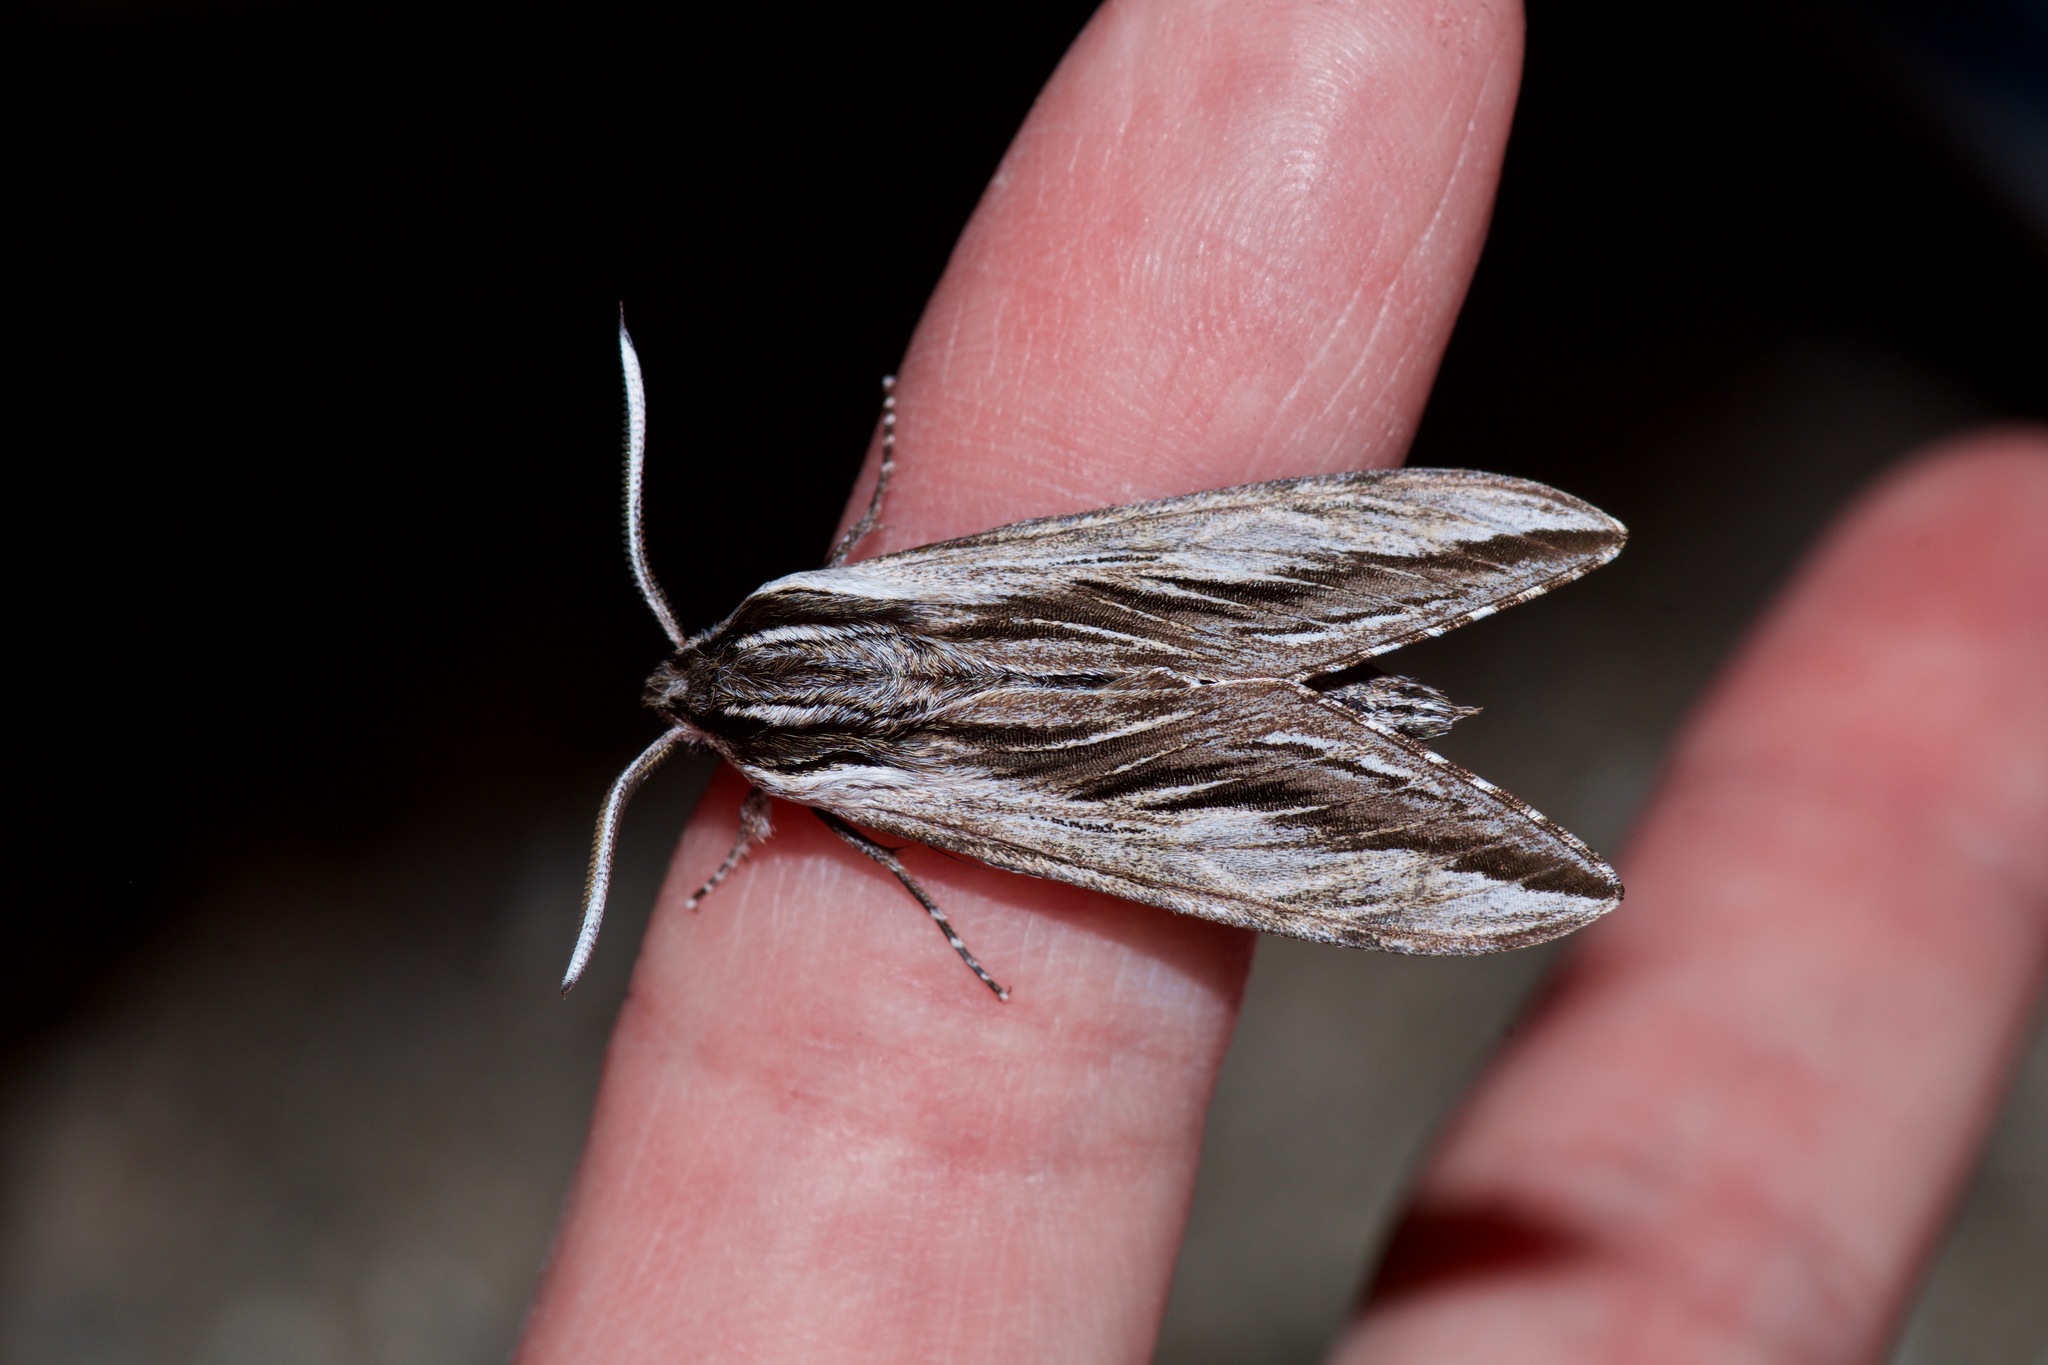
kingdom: Animalia
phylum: Arthropoda
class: Insecta
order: Lepidoptera
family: Sphingidae
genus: Sphinx
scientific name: Sphinx vanbuskirki
